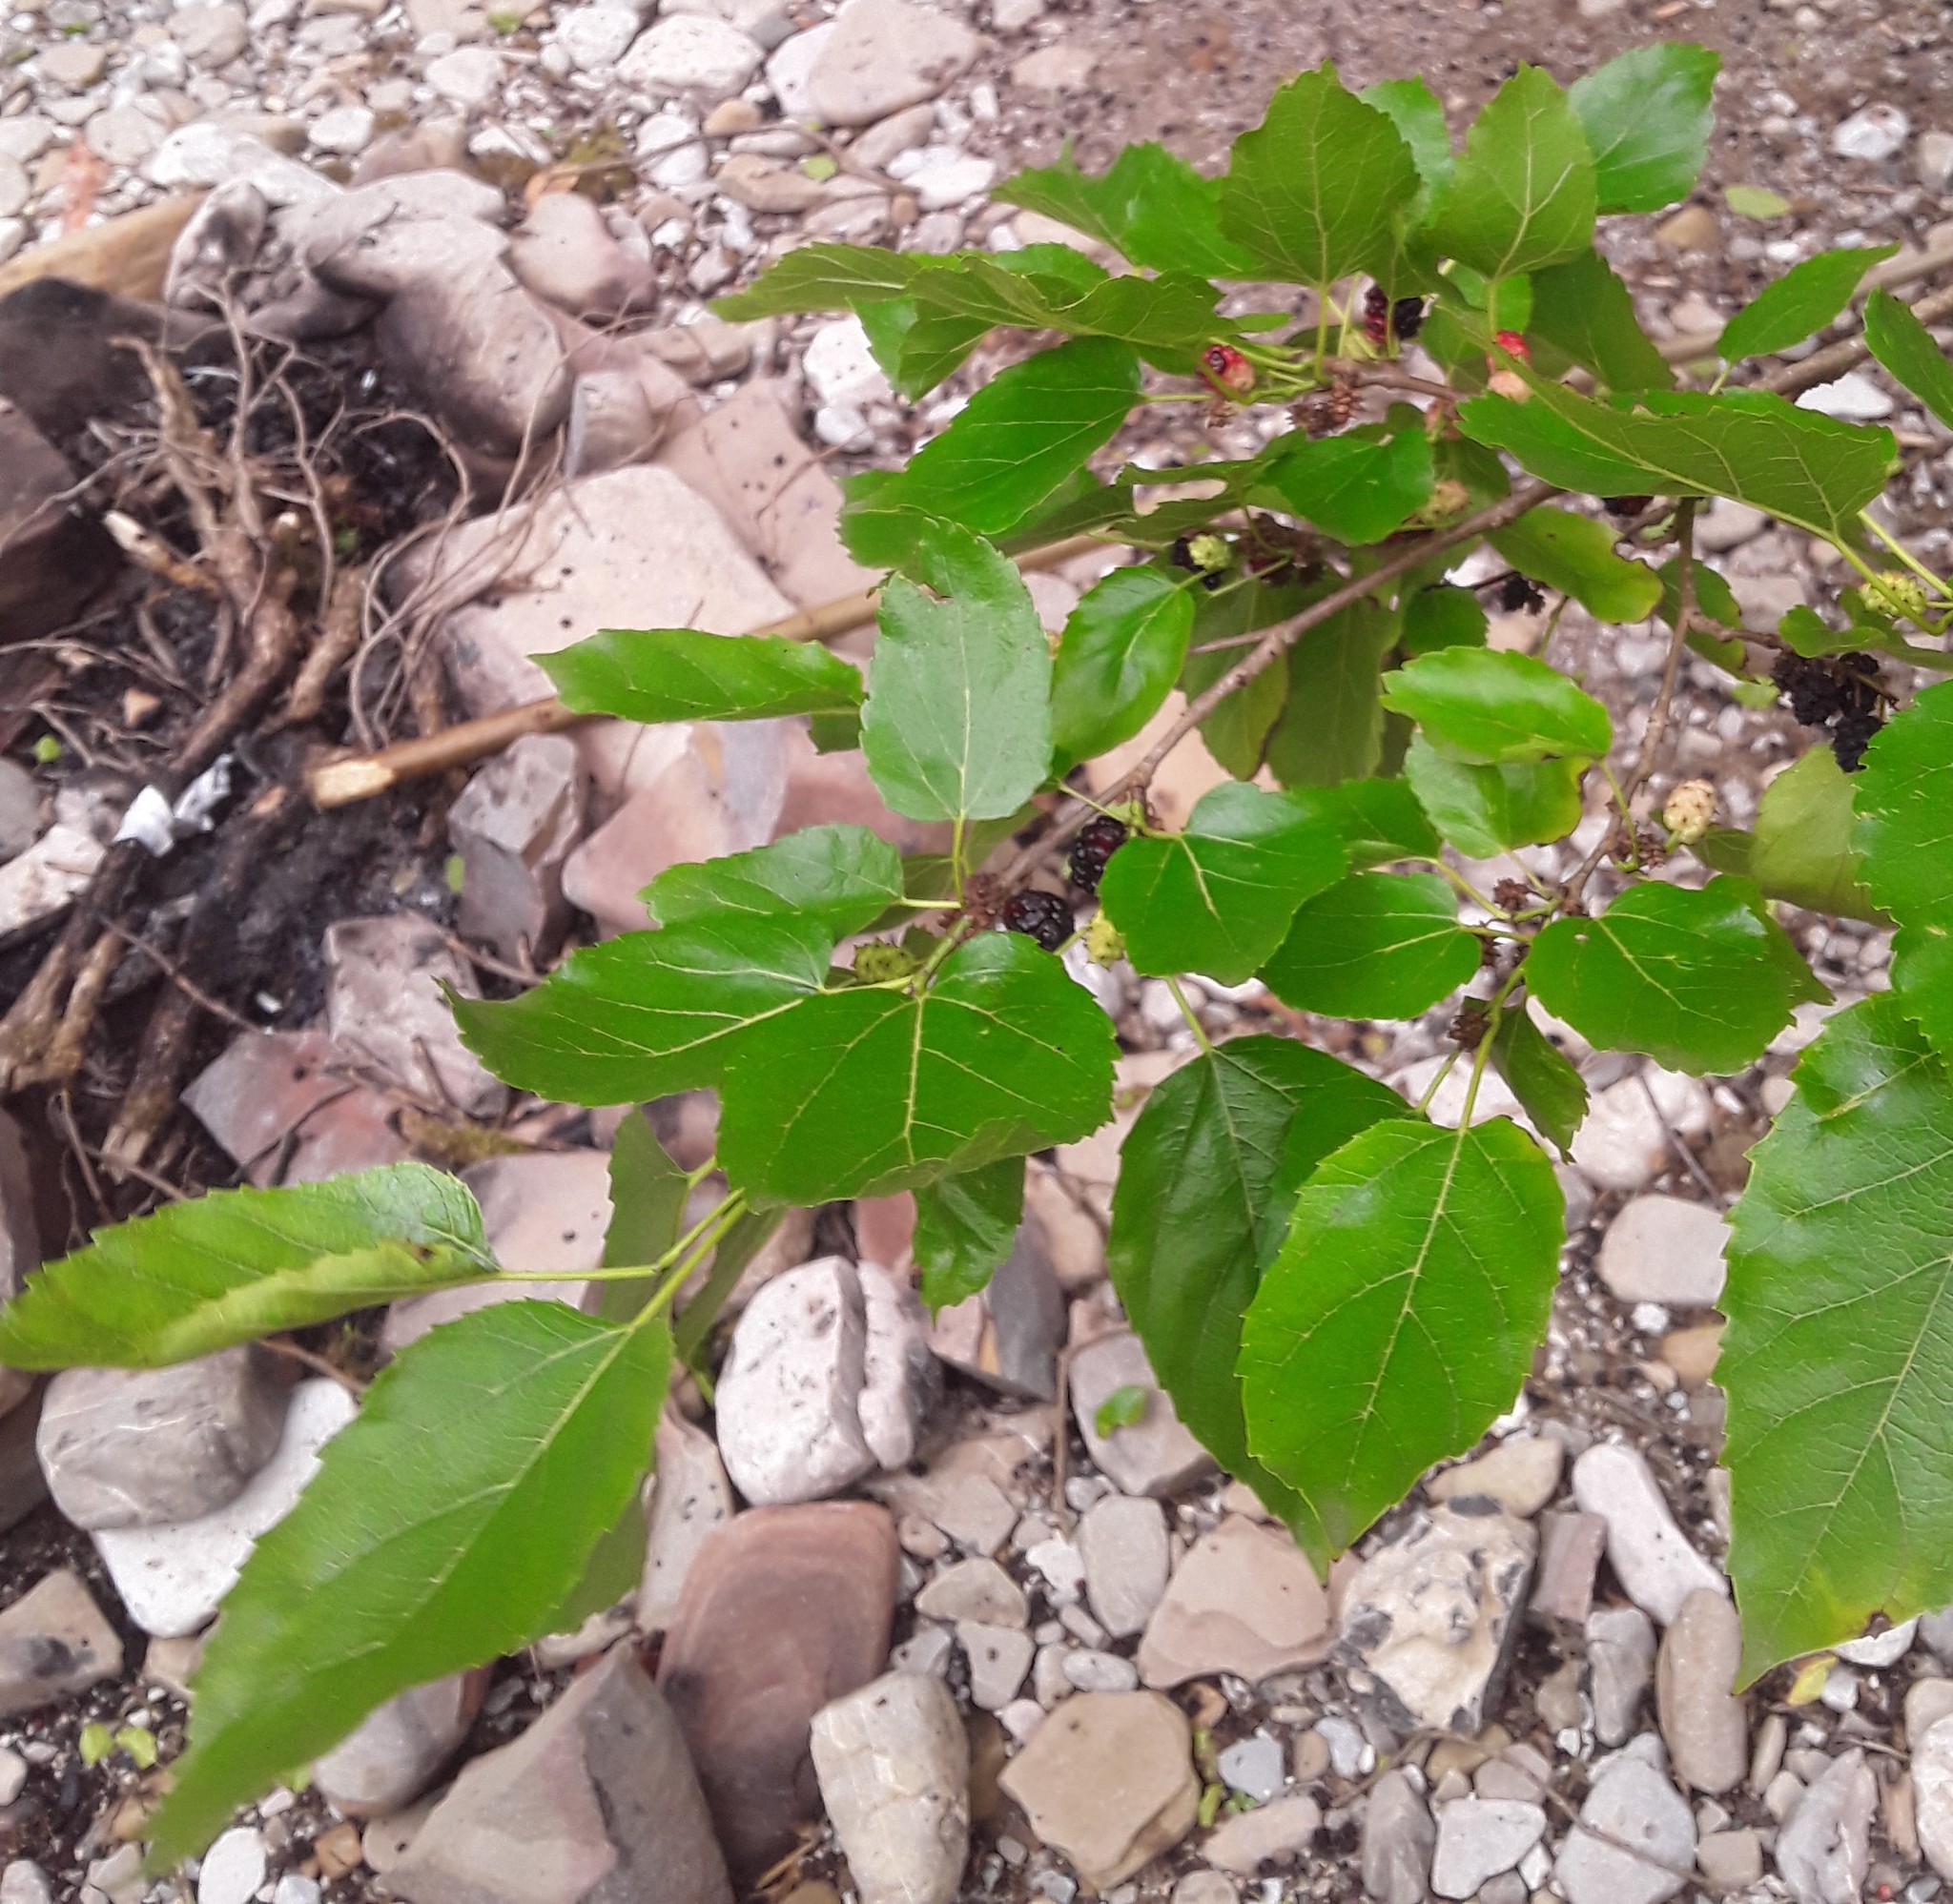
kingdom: Plantae
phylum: Tracheophyta
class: Magnoliopsida
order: Rosales
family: Moraceae
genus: Morus
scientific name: Morus
